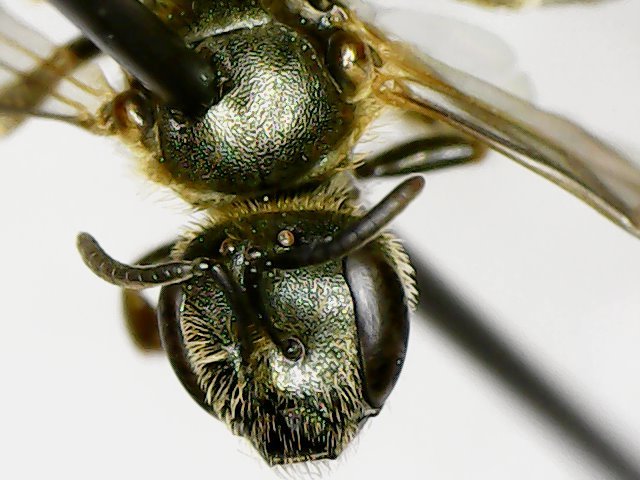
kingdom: Animalia
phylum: Arthropoda
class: Insecta
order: Hymenoptera
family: Halictidae
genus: Halictus
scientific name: Halictus confusus
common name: Southern bronze furrow bee
